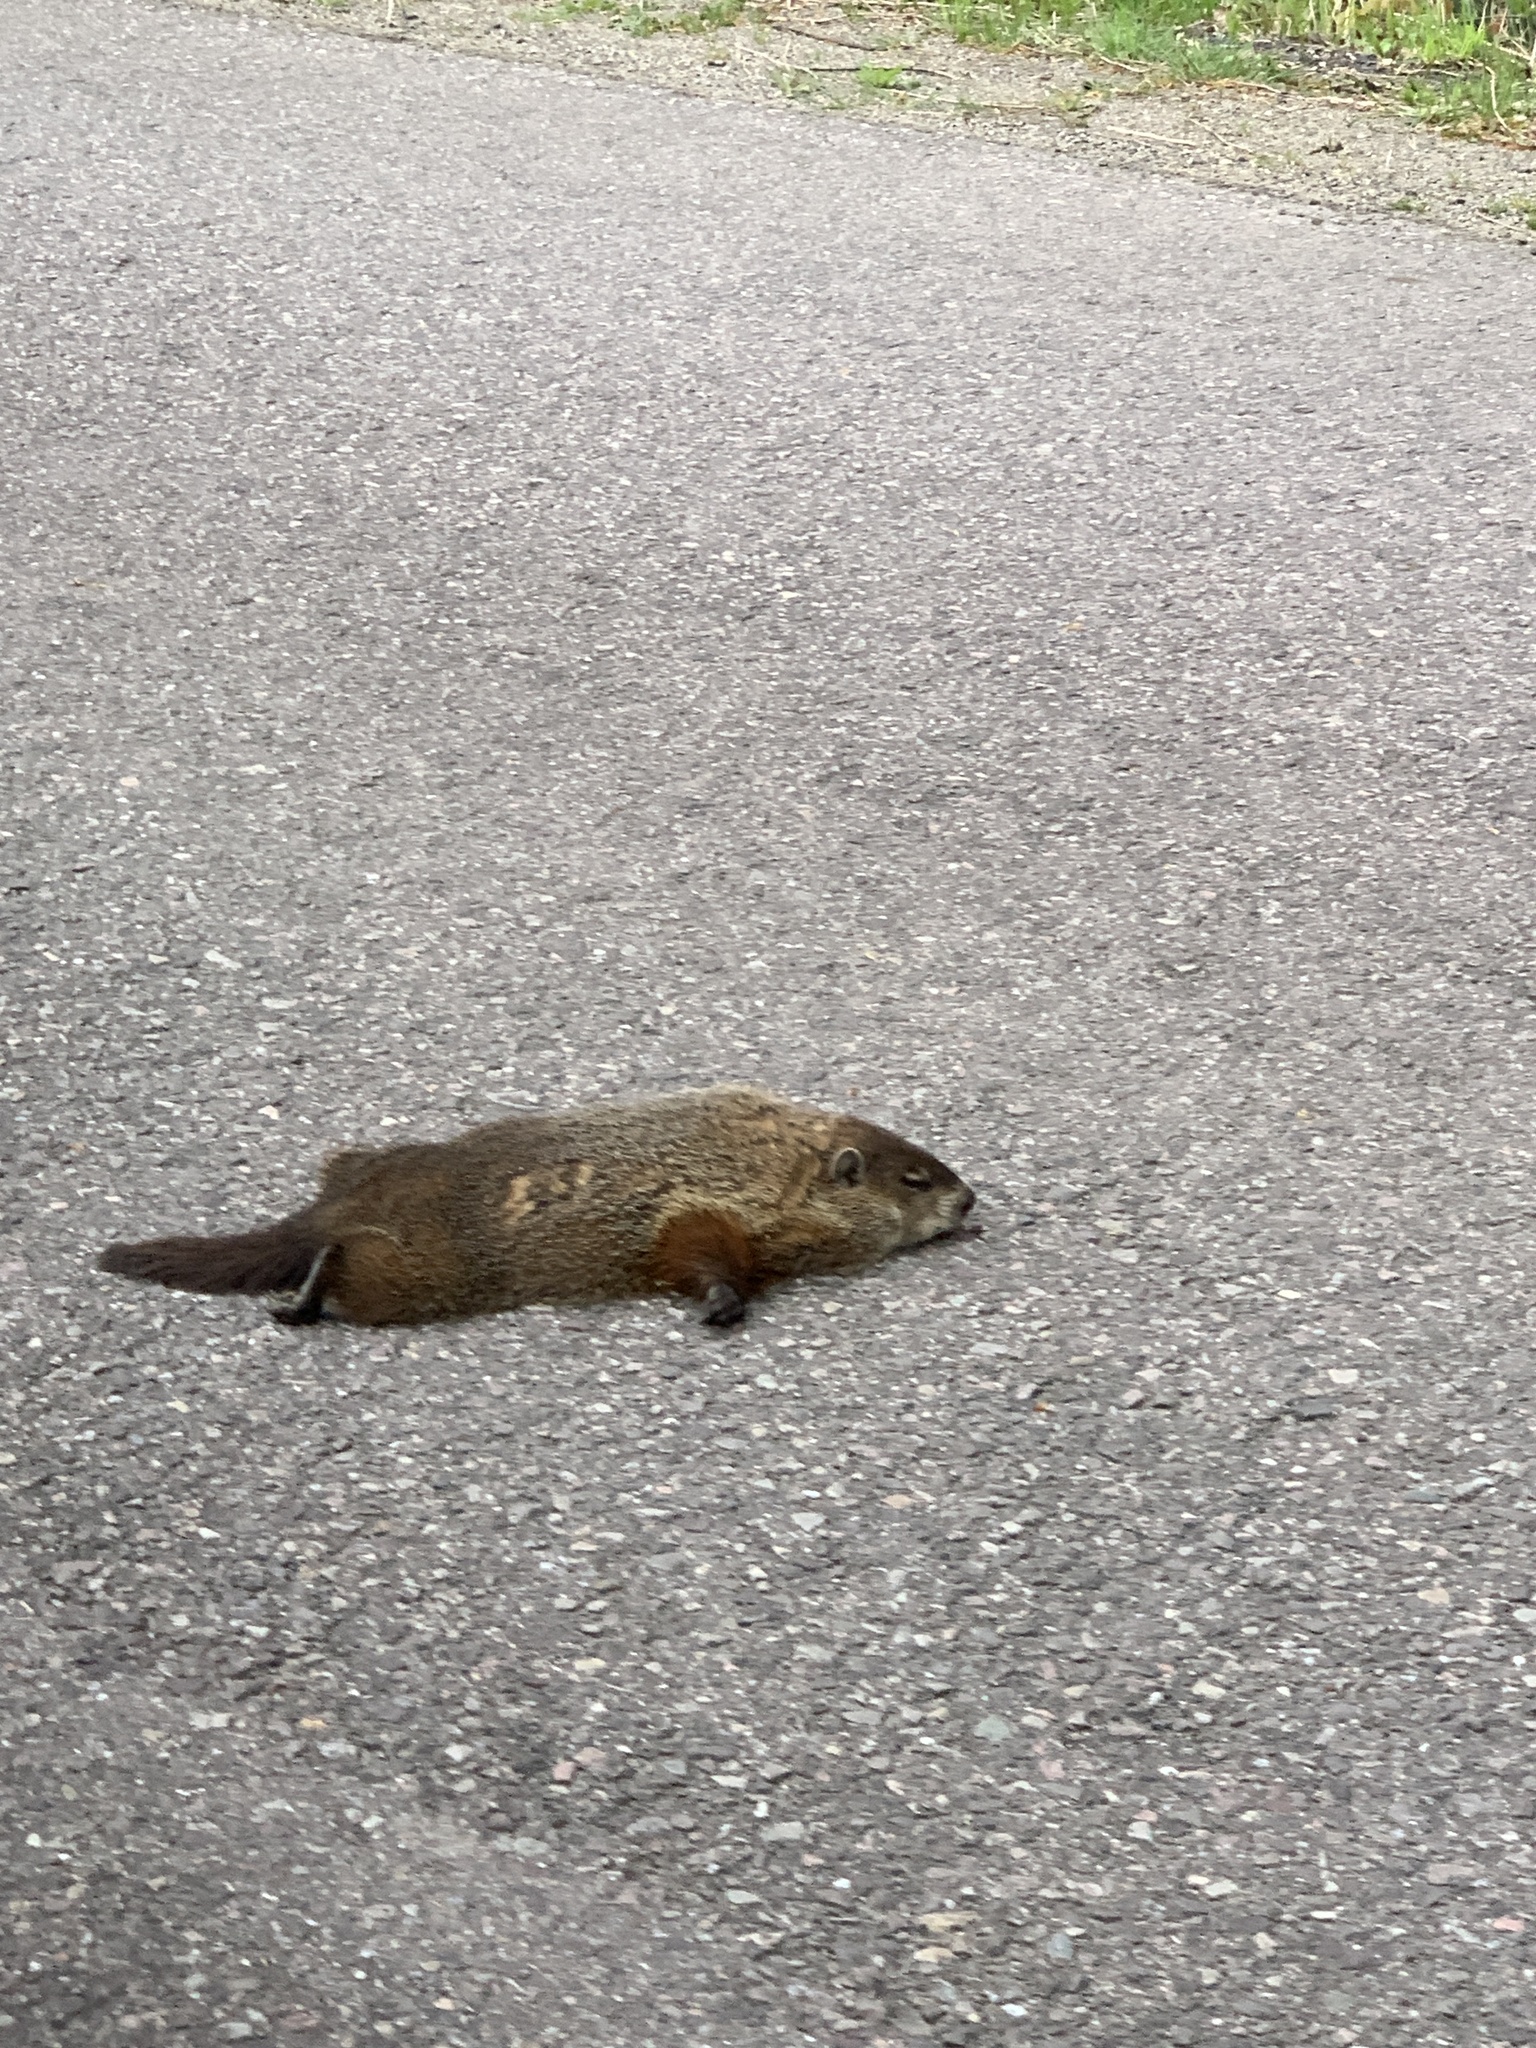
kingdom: Animalia
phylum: Chordata
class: Mammalia
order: Rodentia
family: Sciuridae
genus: Marmota
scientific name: Marmota monax
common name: Groundhog
